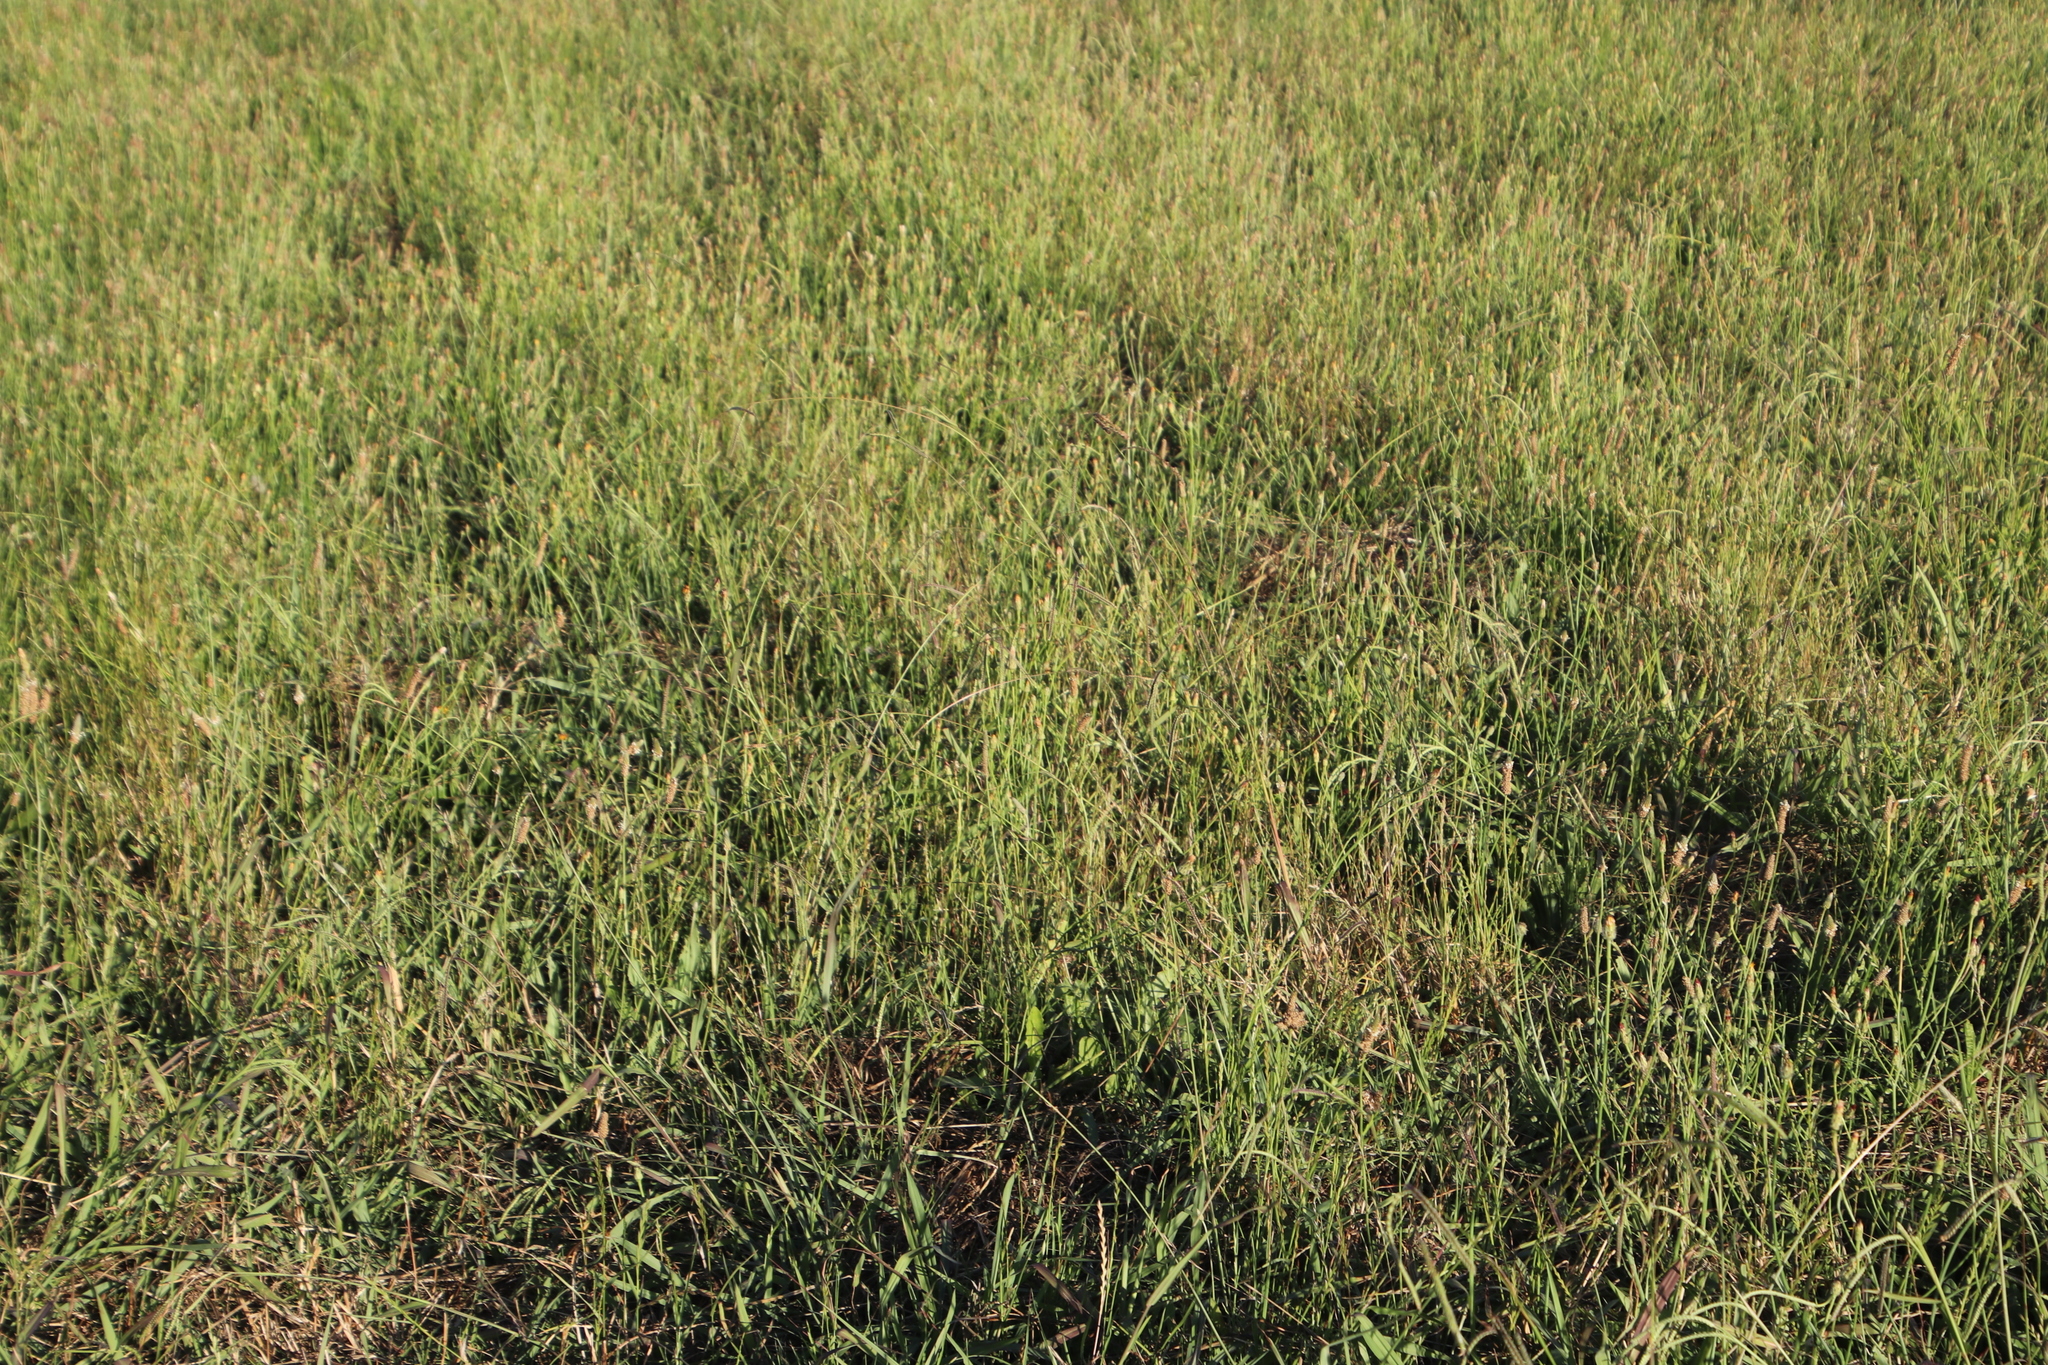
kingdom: Plantae
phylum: Tracheophyta
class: Liliopsida
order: Poales
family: Poaceae
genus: Lolium
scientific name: Lolium multiflorum
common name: Annual ryegrass
